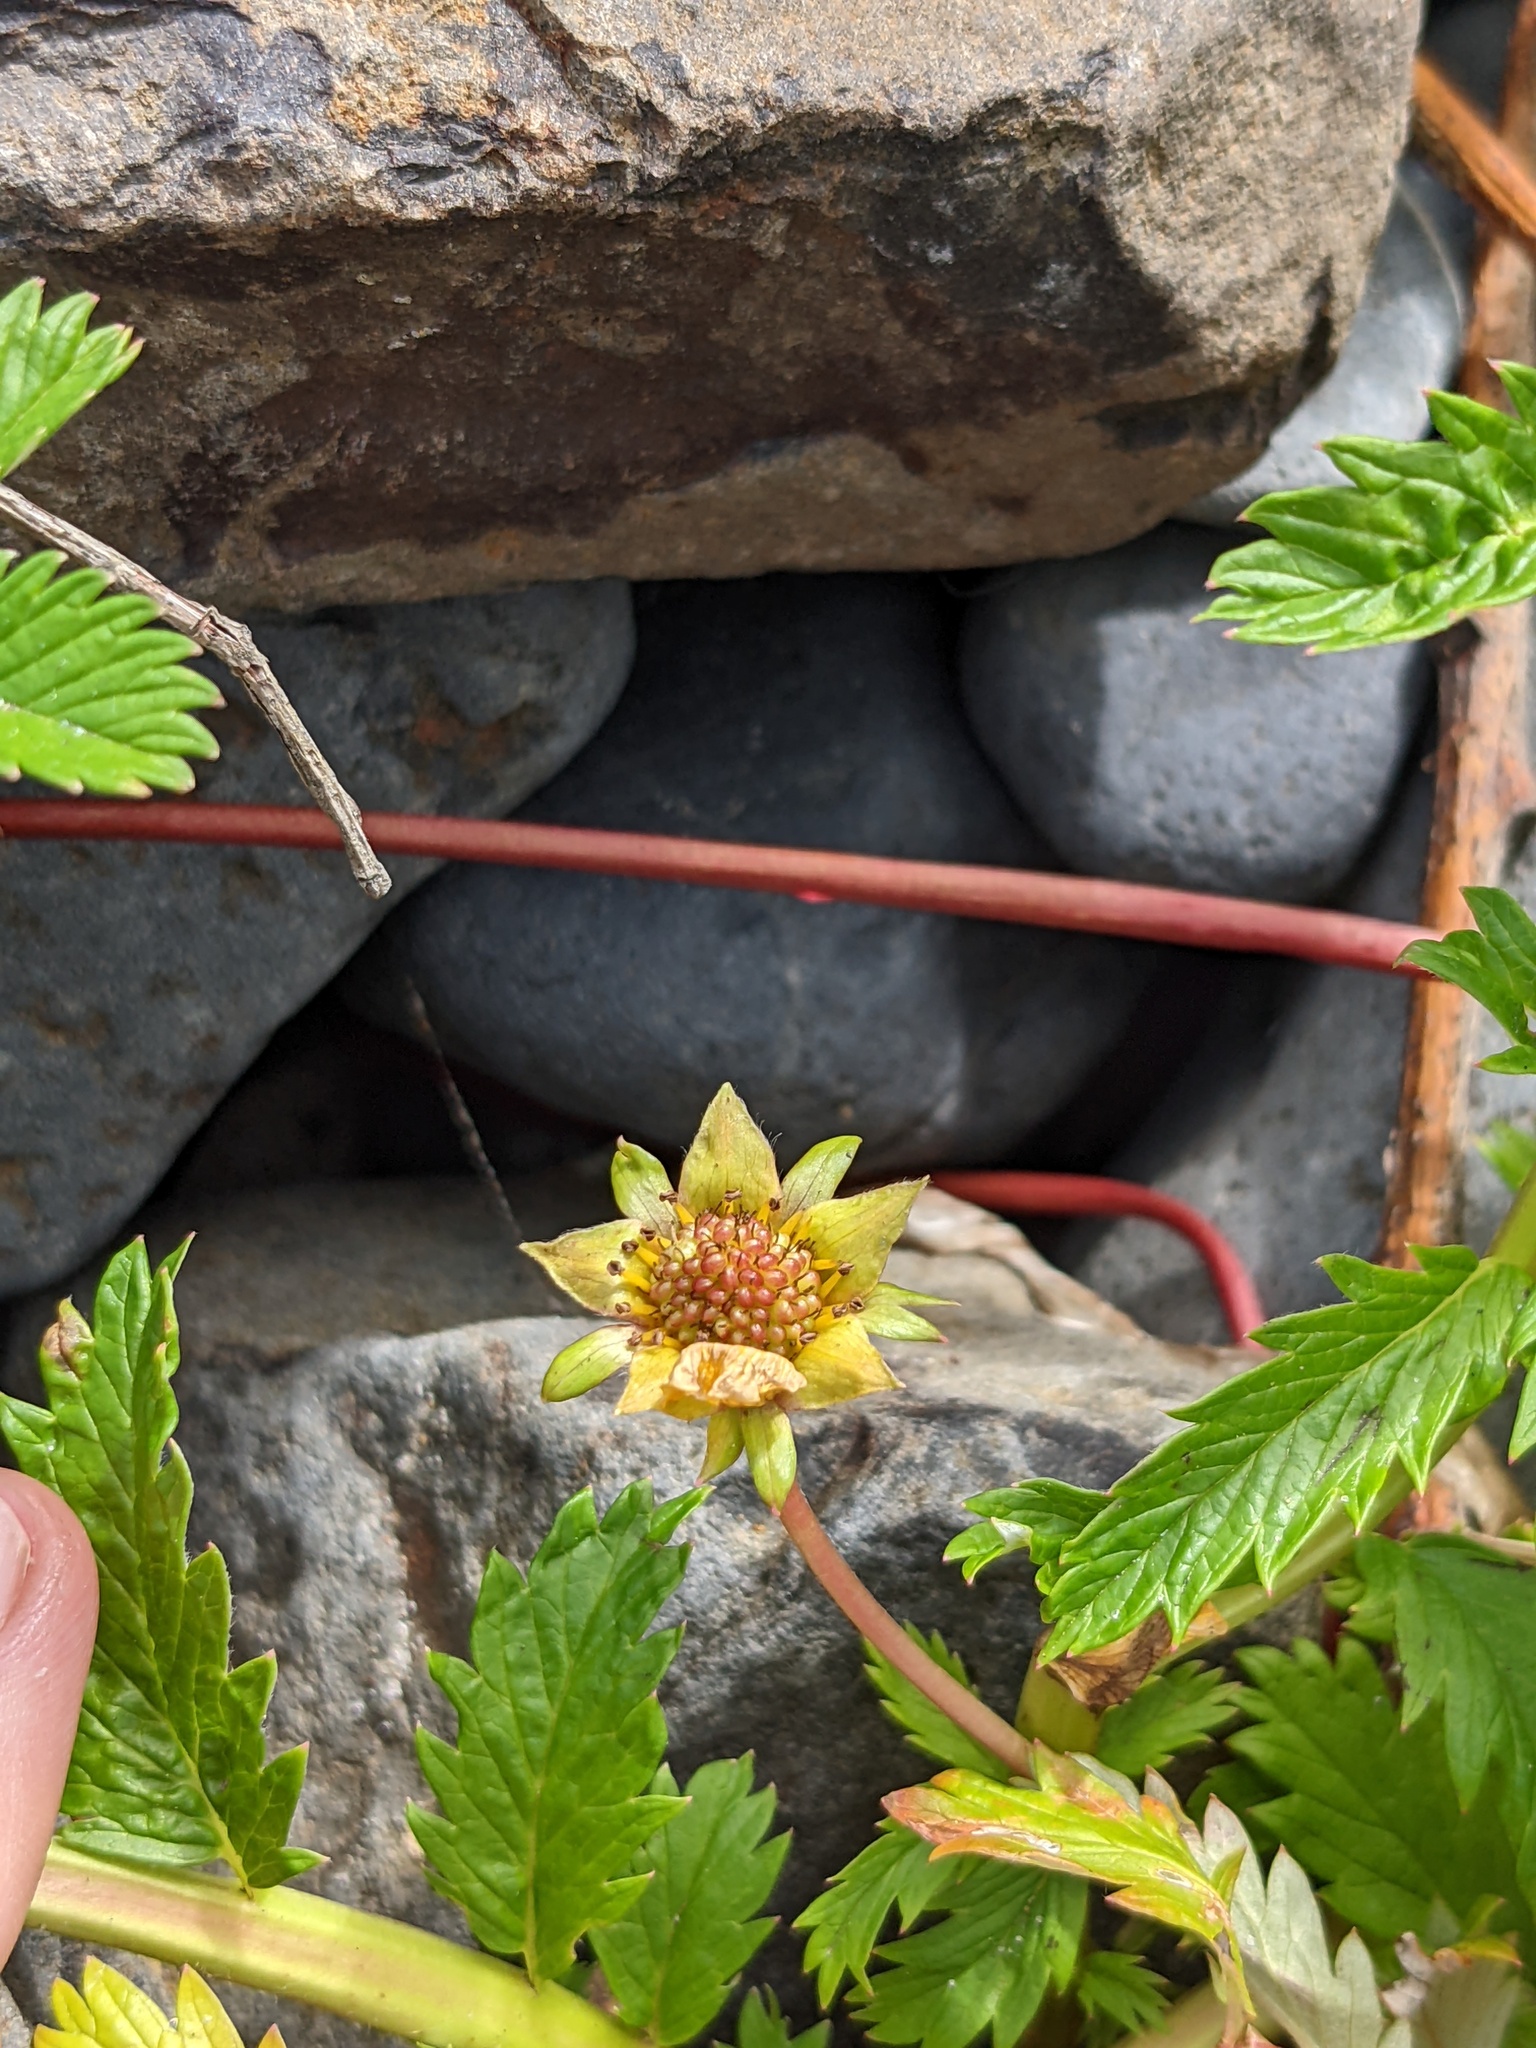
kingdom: Plantae
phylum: Tracheophyta
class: Magnoliopsida
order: Rosales
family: Rosaceae
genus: Argentina
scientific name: Argentina anserina
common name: Common silverweed
